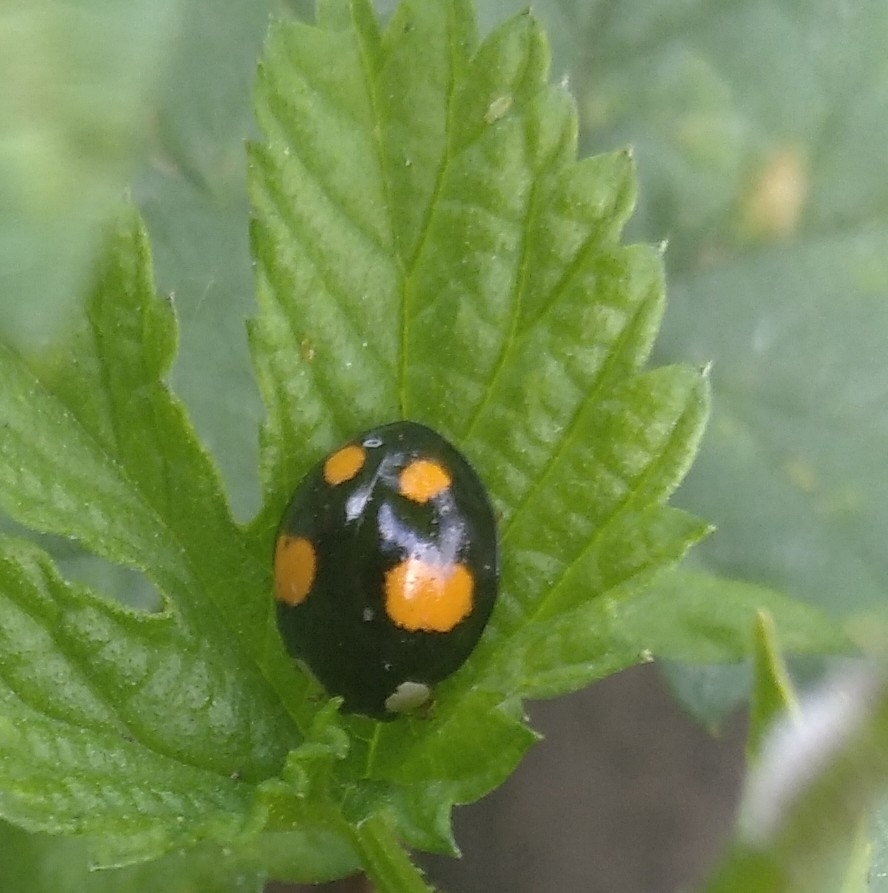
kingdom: Animalia
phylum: Arthropoda
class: Insecta
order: Coleoptera
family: Coccinellidae
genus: Harmonia
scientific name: Harmonia axyridis
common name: Harlequin ladybird
